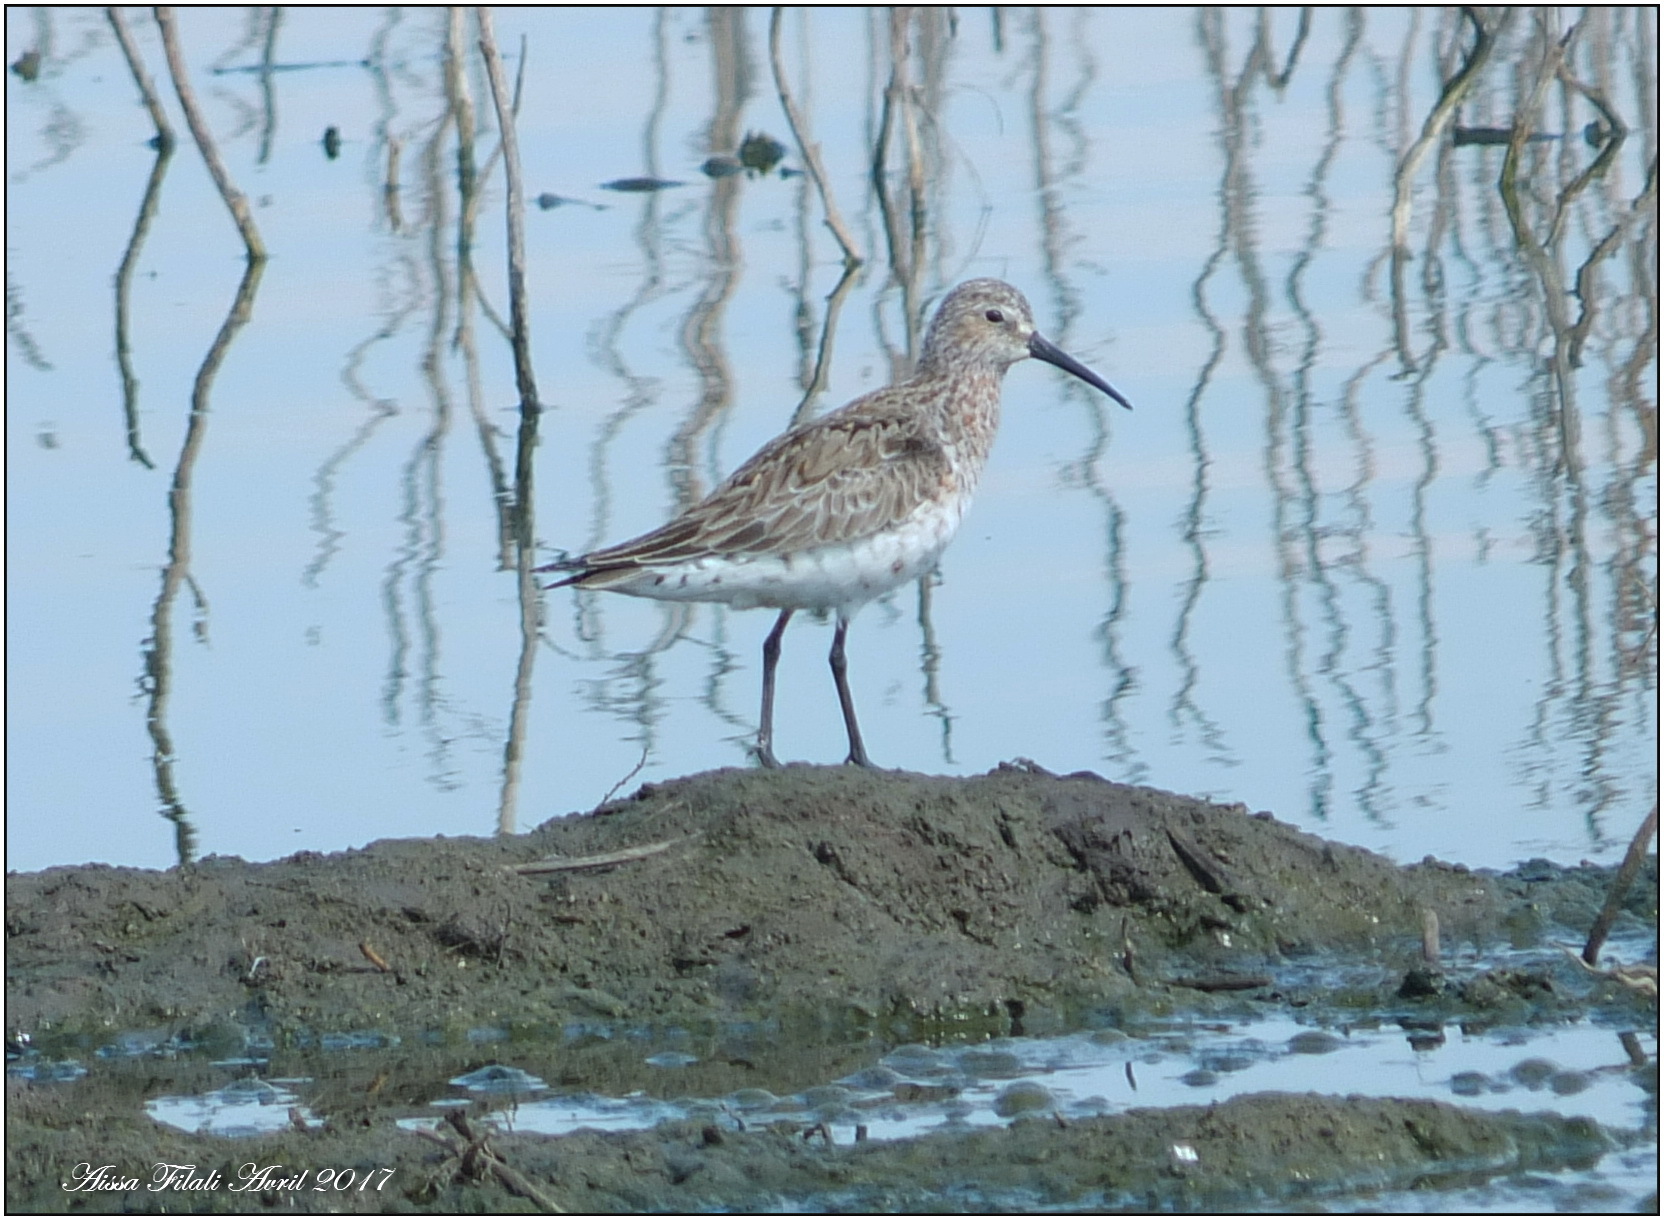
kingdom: Animalia
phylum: Chordata
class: Aves
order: Charadriiformes
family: Scolopacidae
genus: Calidris
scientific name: Calidris ferruginea
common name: Curlew sandpiper
